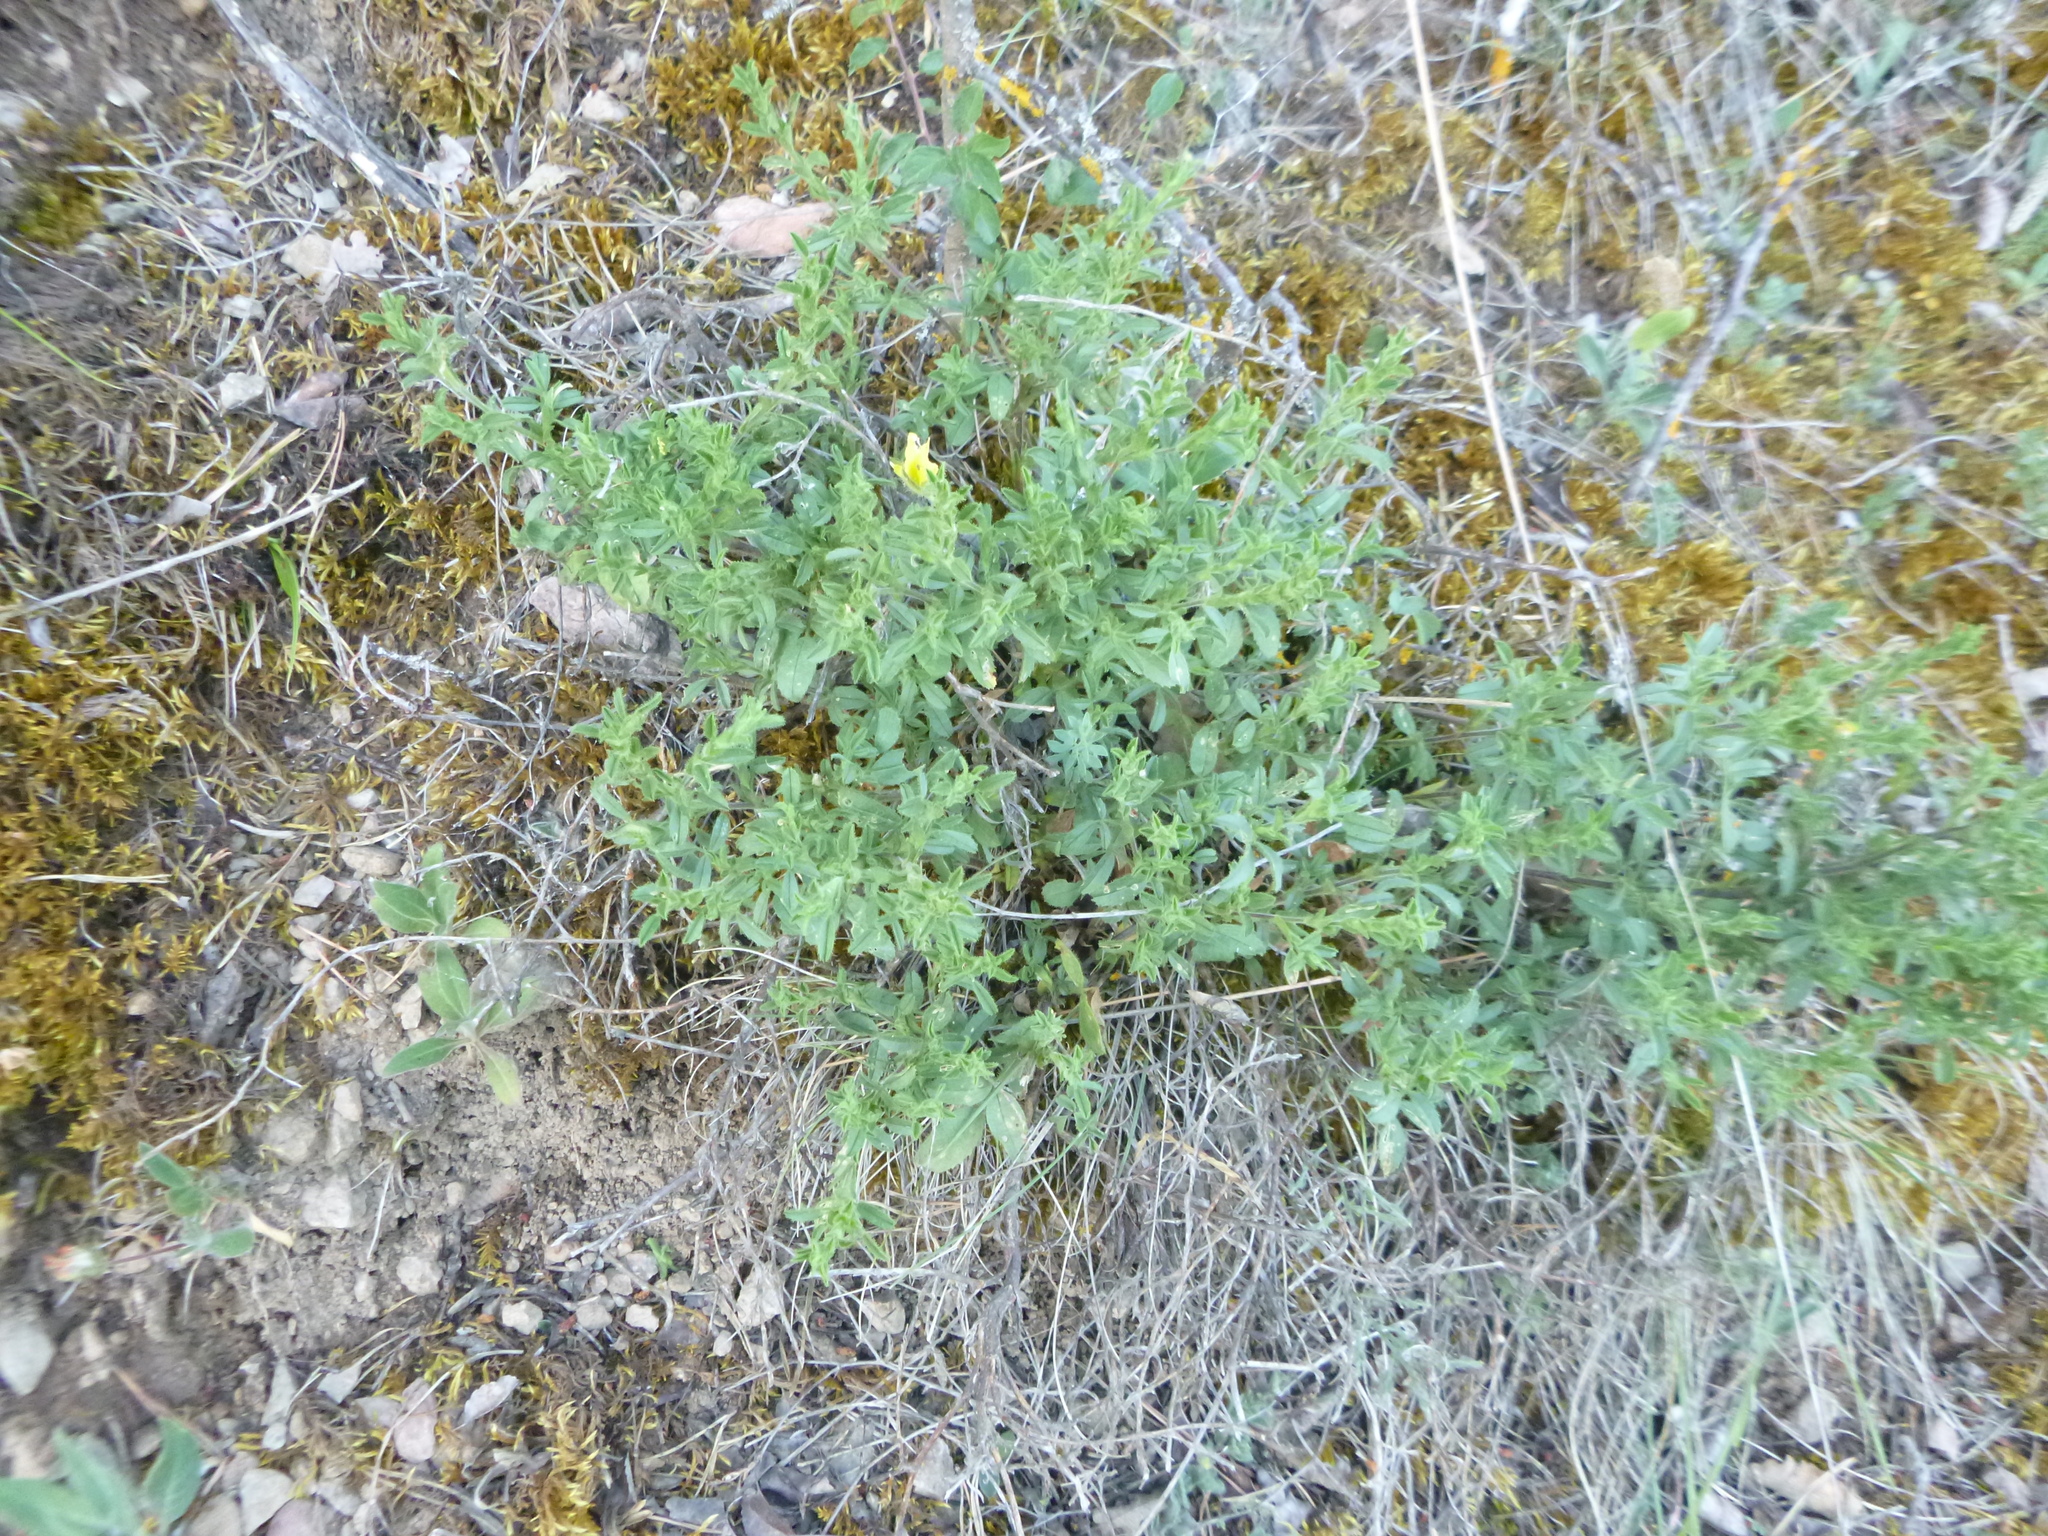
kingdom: Plantae
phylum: Tracheophyta
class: Magnoliopsida
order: Fabales
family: Fabaceae
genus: Ononis
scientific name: Ononis natrix
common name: Yellow restharrow
